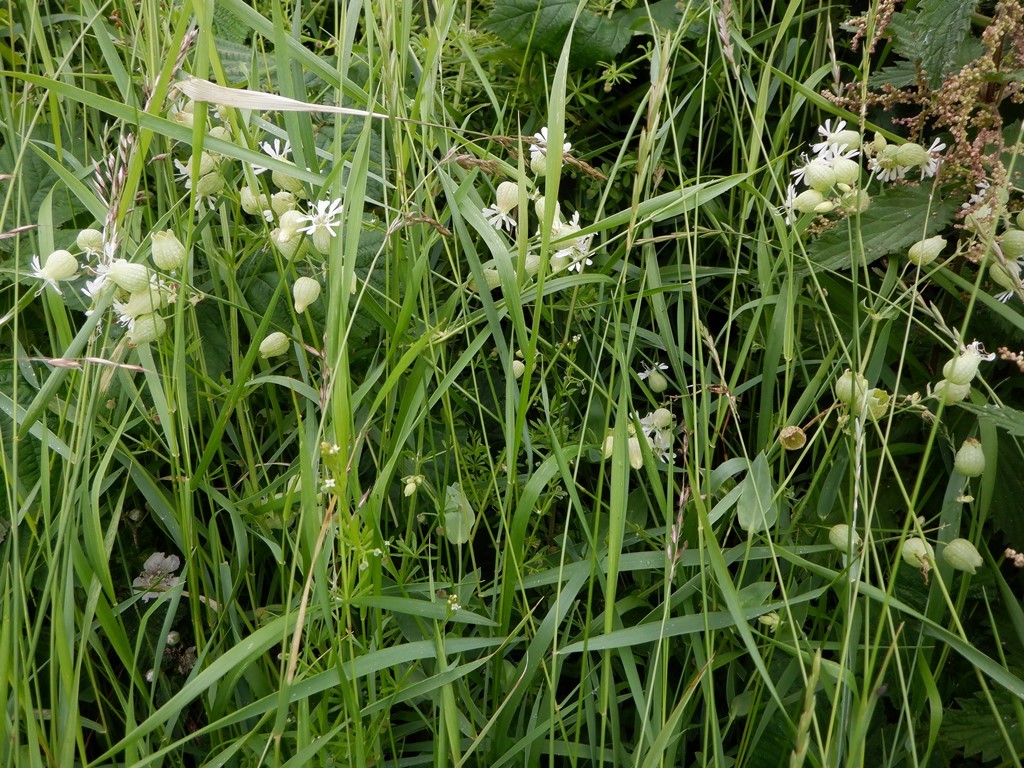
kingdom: Plantae
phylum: Tracheophyta
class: Magnoliopsida
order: Caryophyllales
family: Caryophyllaceae
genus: Silene
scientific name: Silene vulgaris
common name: Bladder campion
